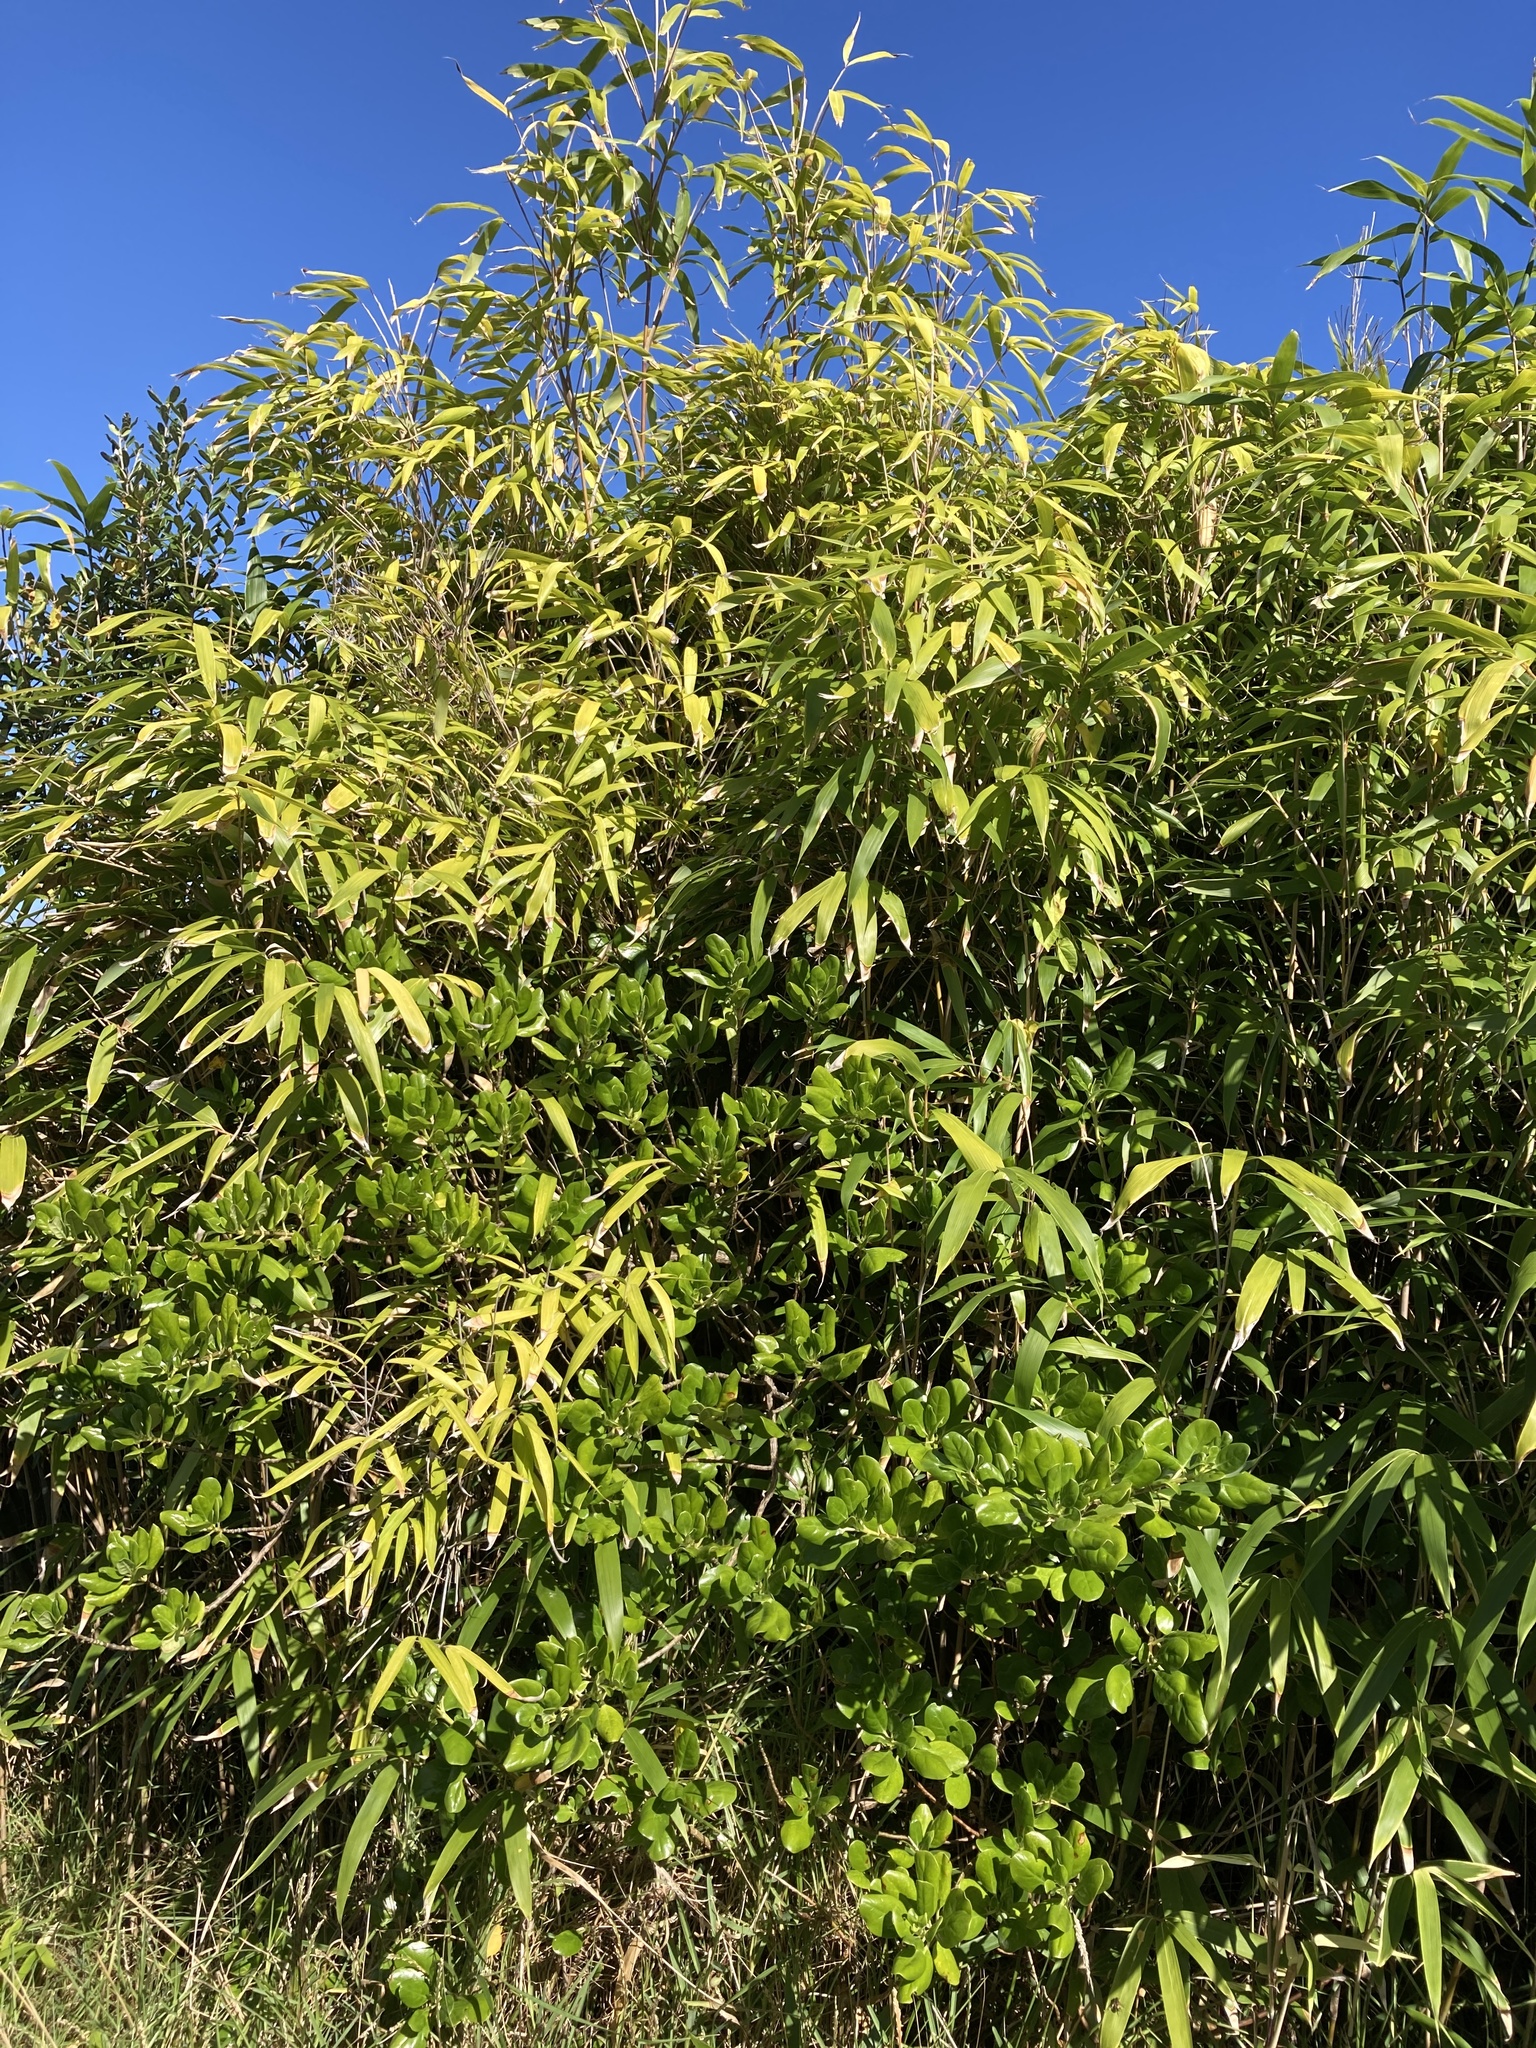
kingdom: Plantae
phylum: Tracheophyta
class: Liliopsida
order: Poales
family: Poaceae
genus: Pseudosasa
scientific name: Pseudosasa japonica
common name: Arrow bamboo
